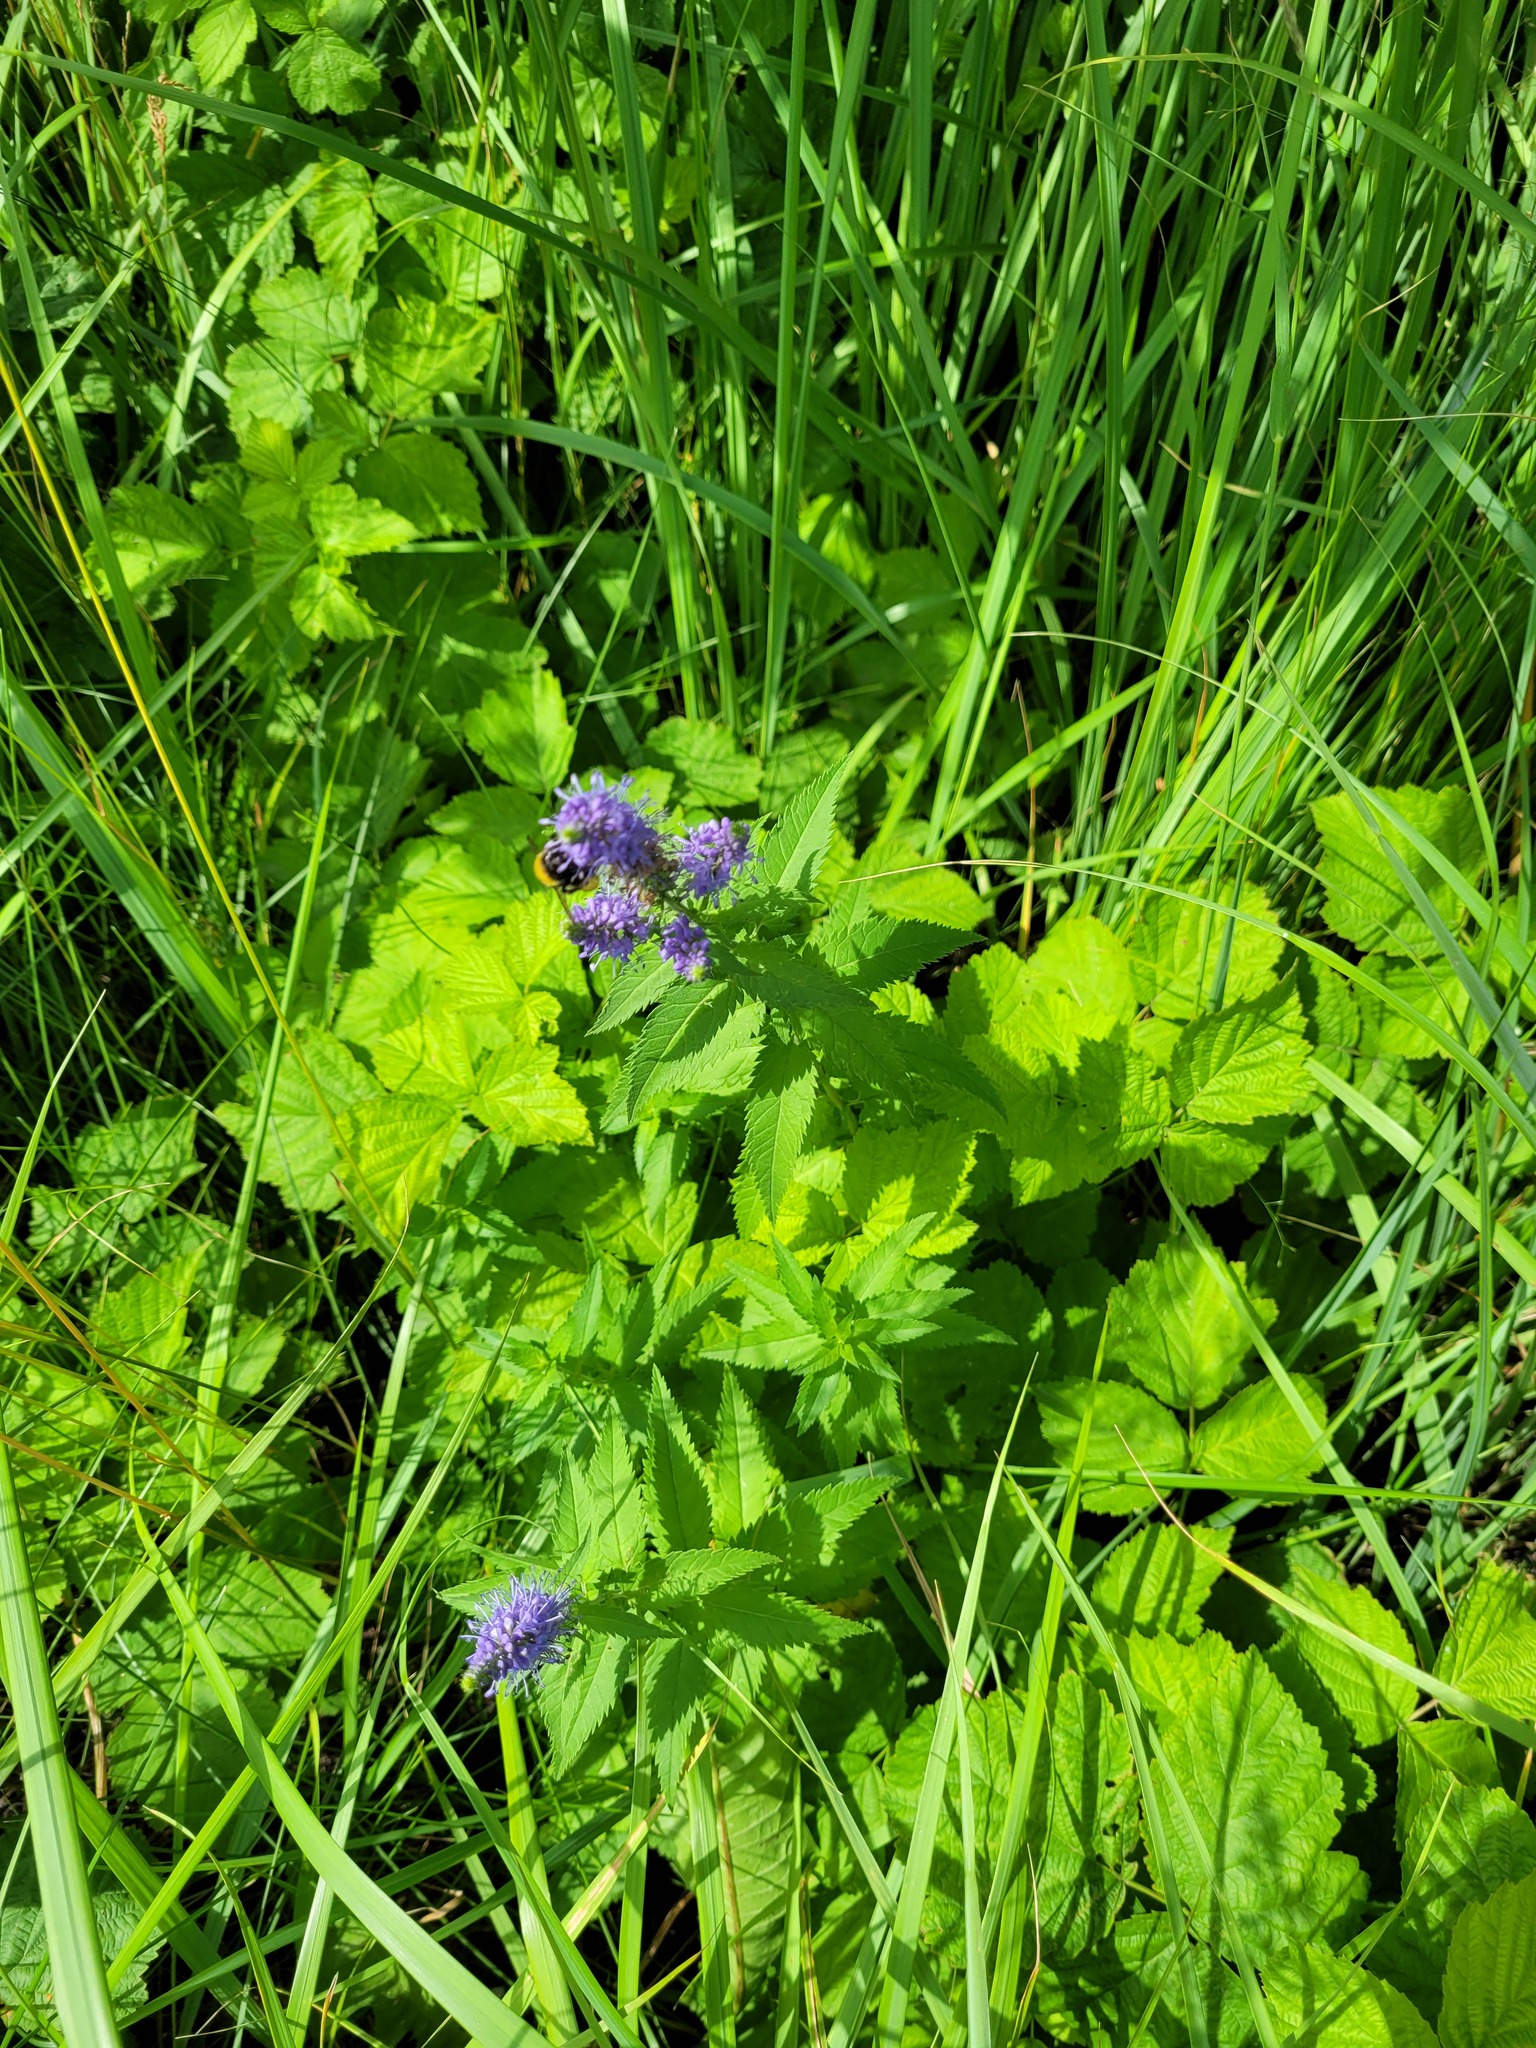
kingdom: Plantae
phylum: Tracheophyta
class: Magnoliopsida
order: Lamiales
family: Plantaginaceae
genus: Veronica
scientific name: Veronica longifolia
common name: Garden speedwell
